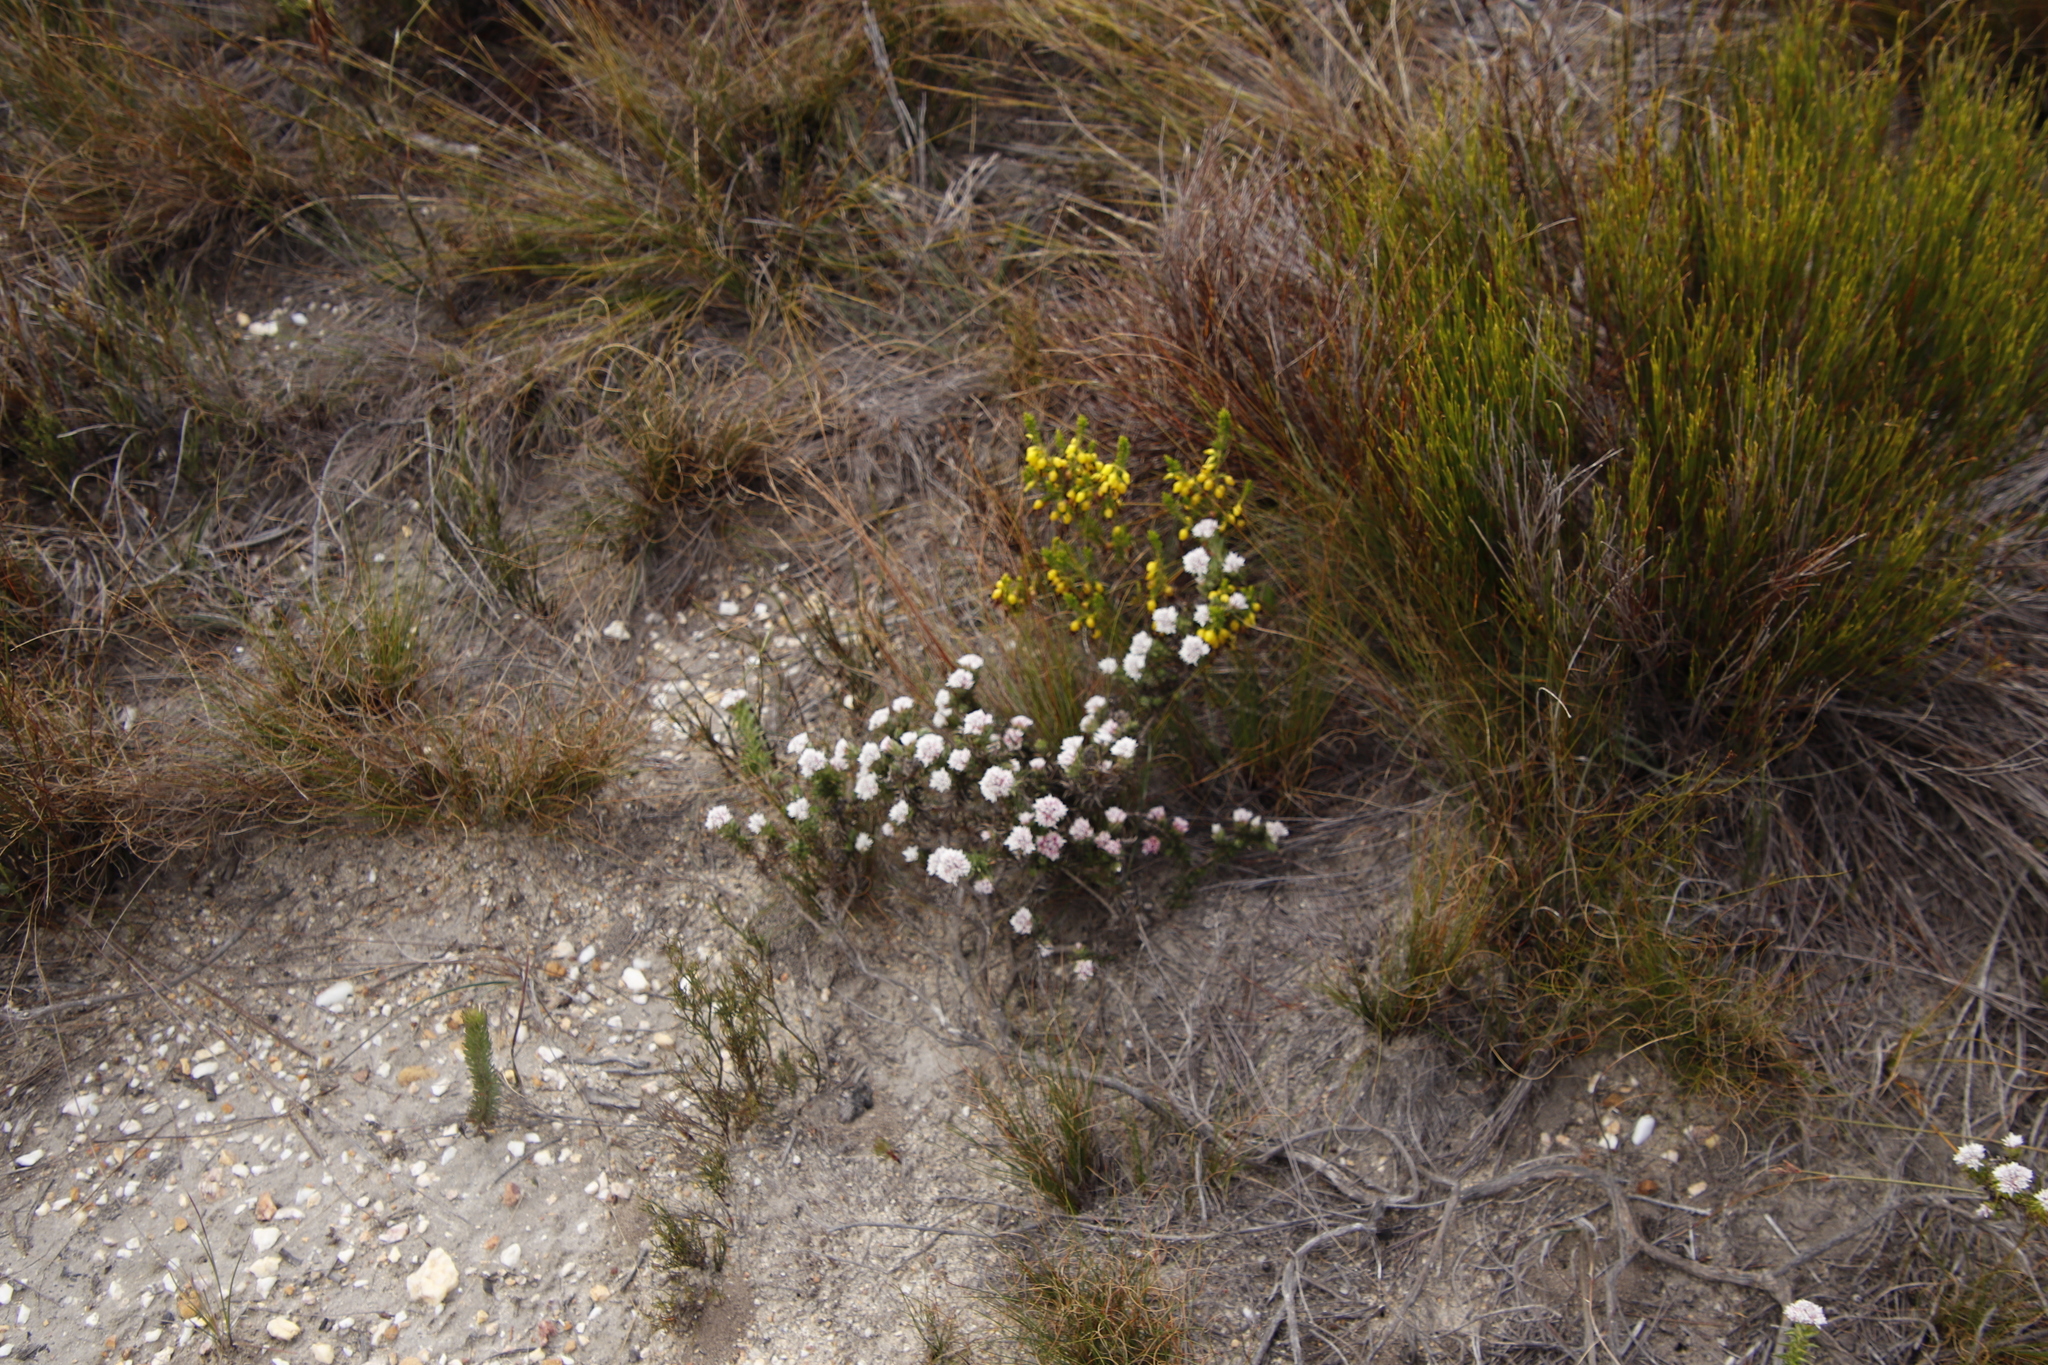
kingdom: Plantae
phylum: Tracheophyta
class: Magnoliopsida
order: Asterales
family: Asteraceae
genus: Metalasia
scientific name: Metalasia inversa
